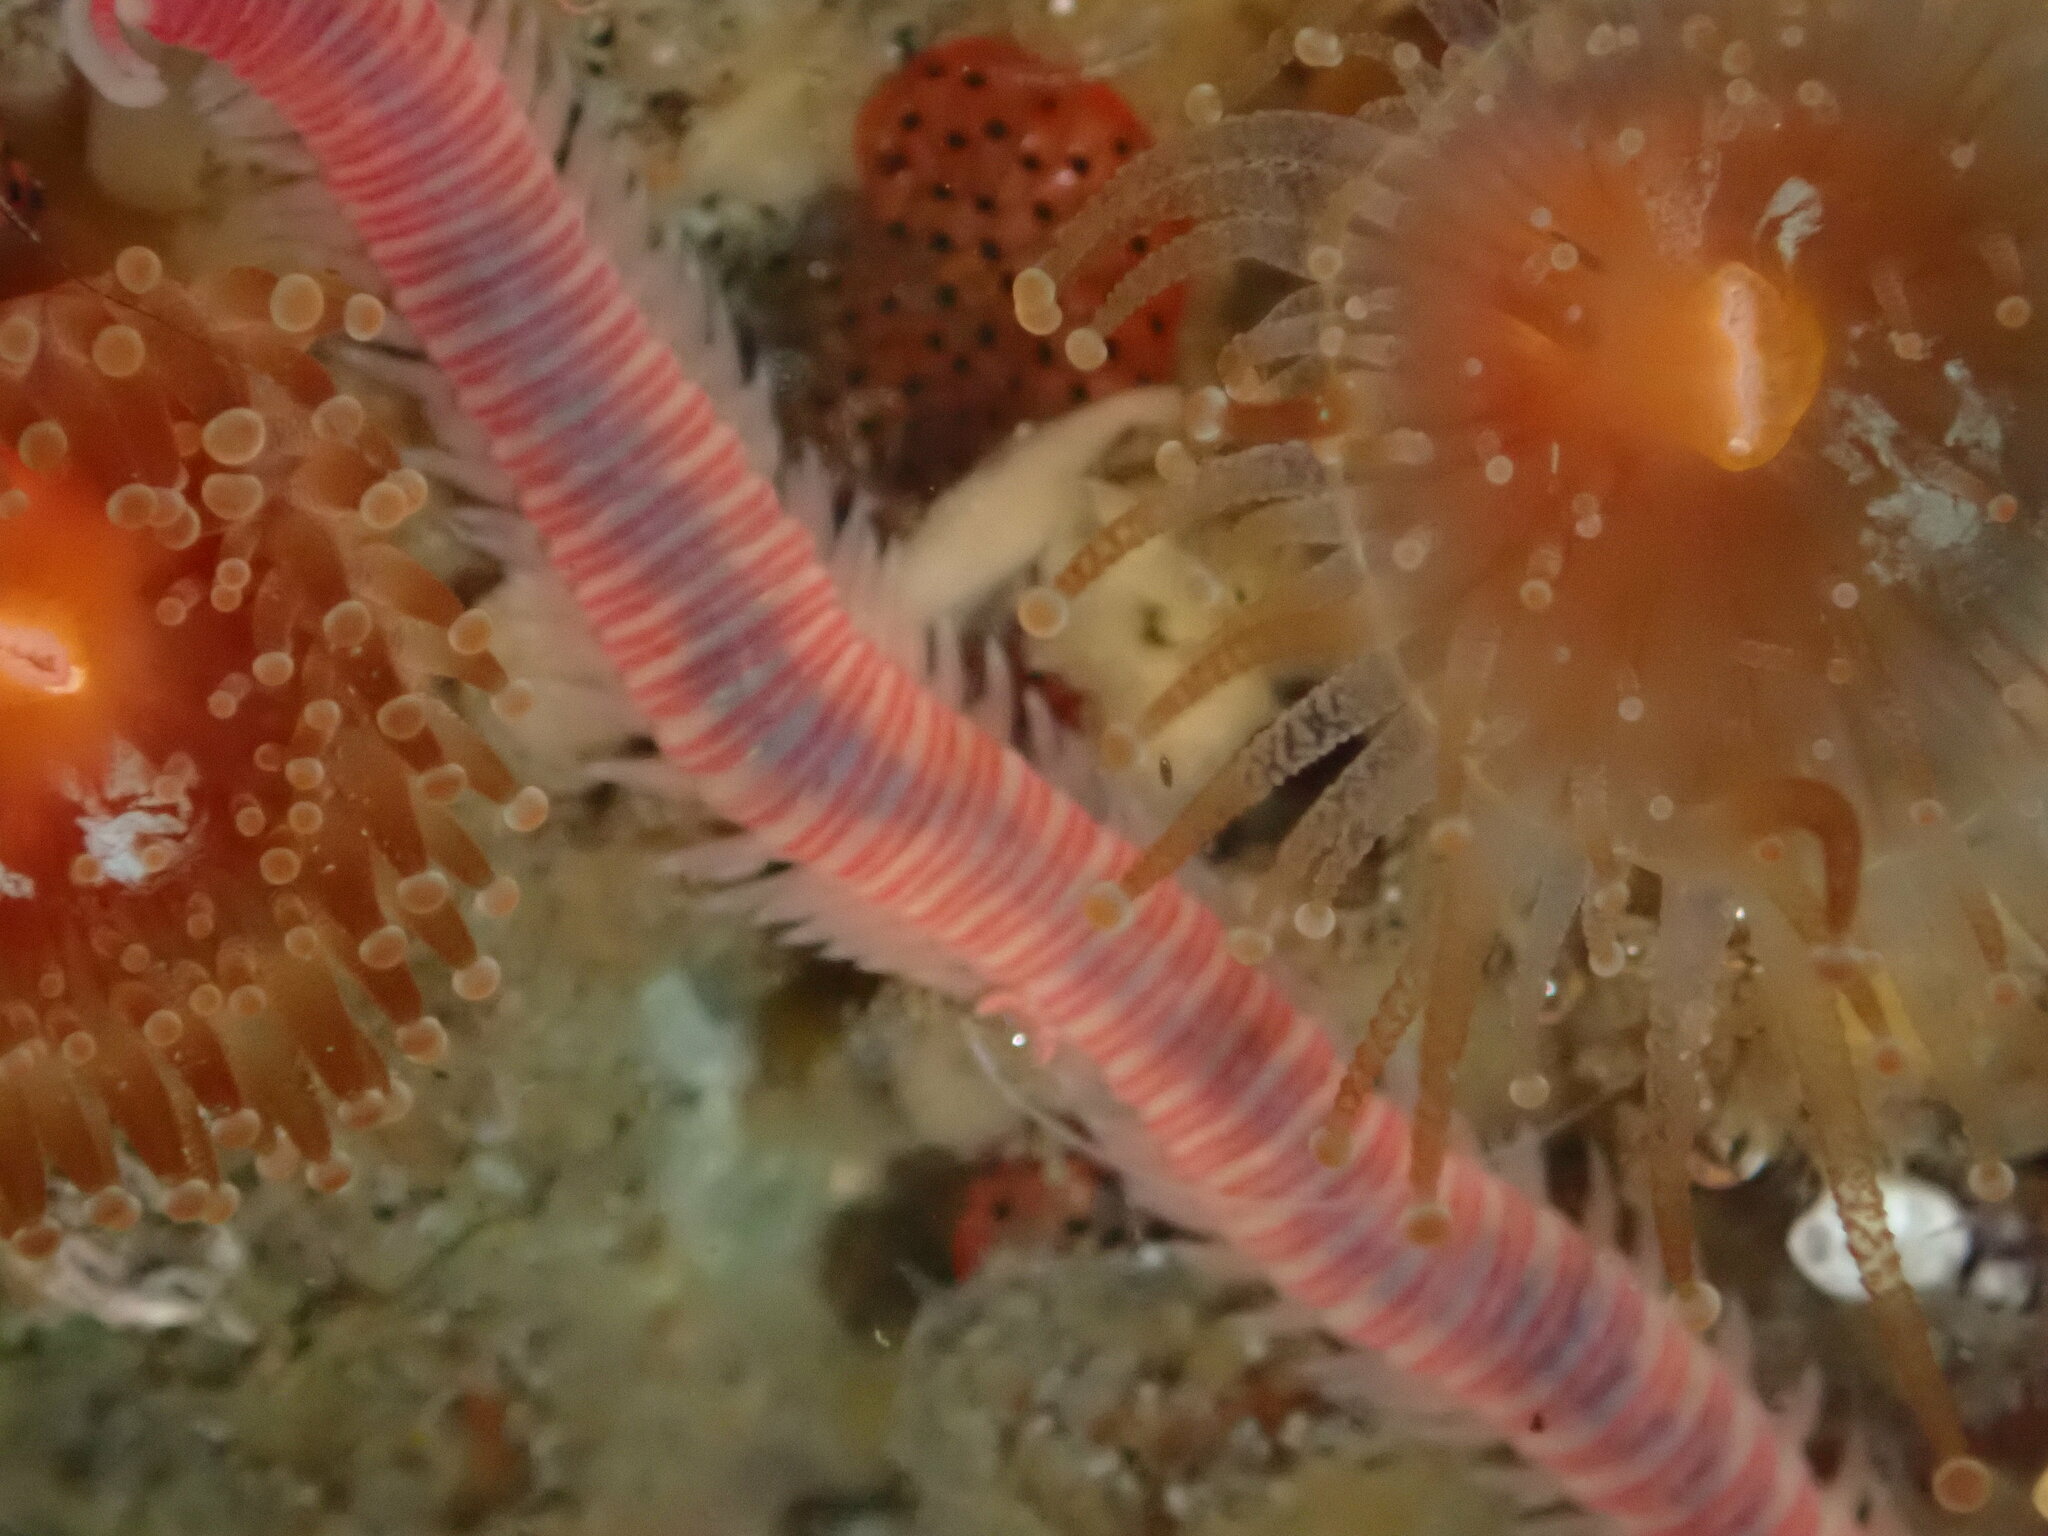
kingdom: Animalia
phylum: Annelida
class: Polychaeta
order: Eunicida
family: Dorvilleidae
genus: Dorvillea
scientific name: Dorvillea moniloceras
